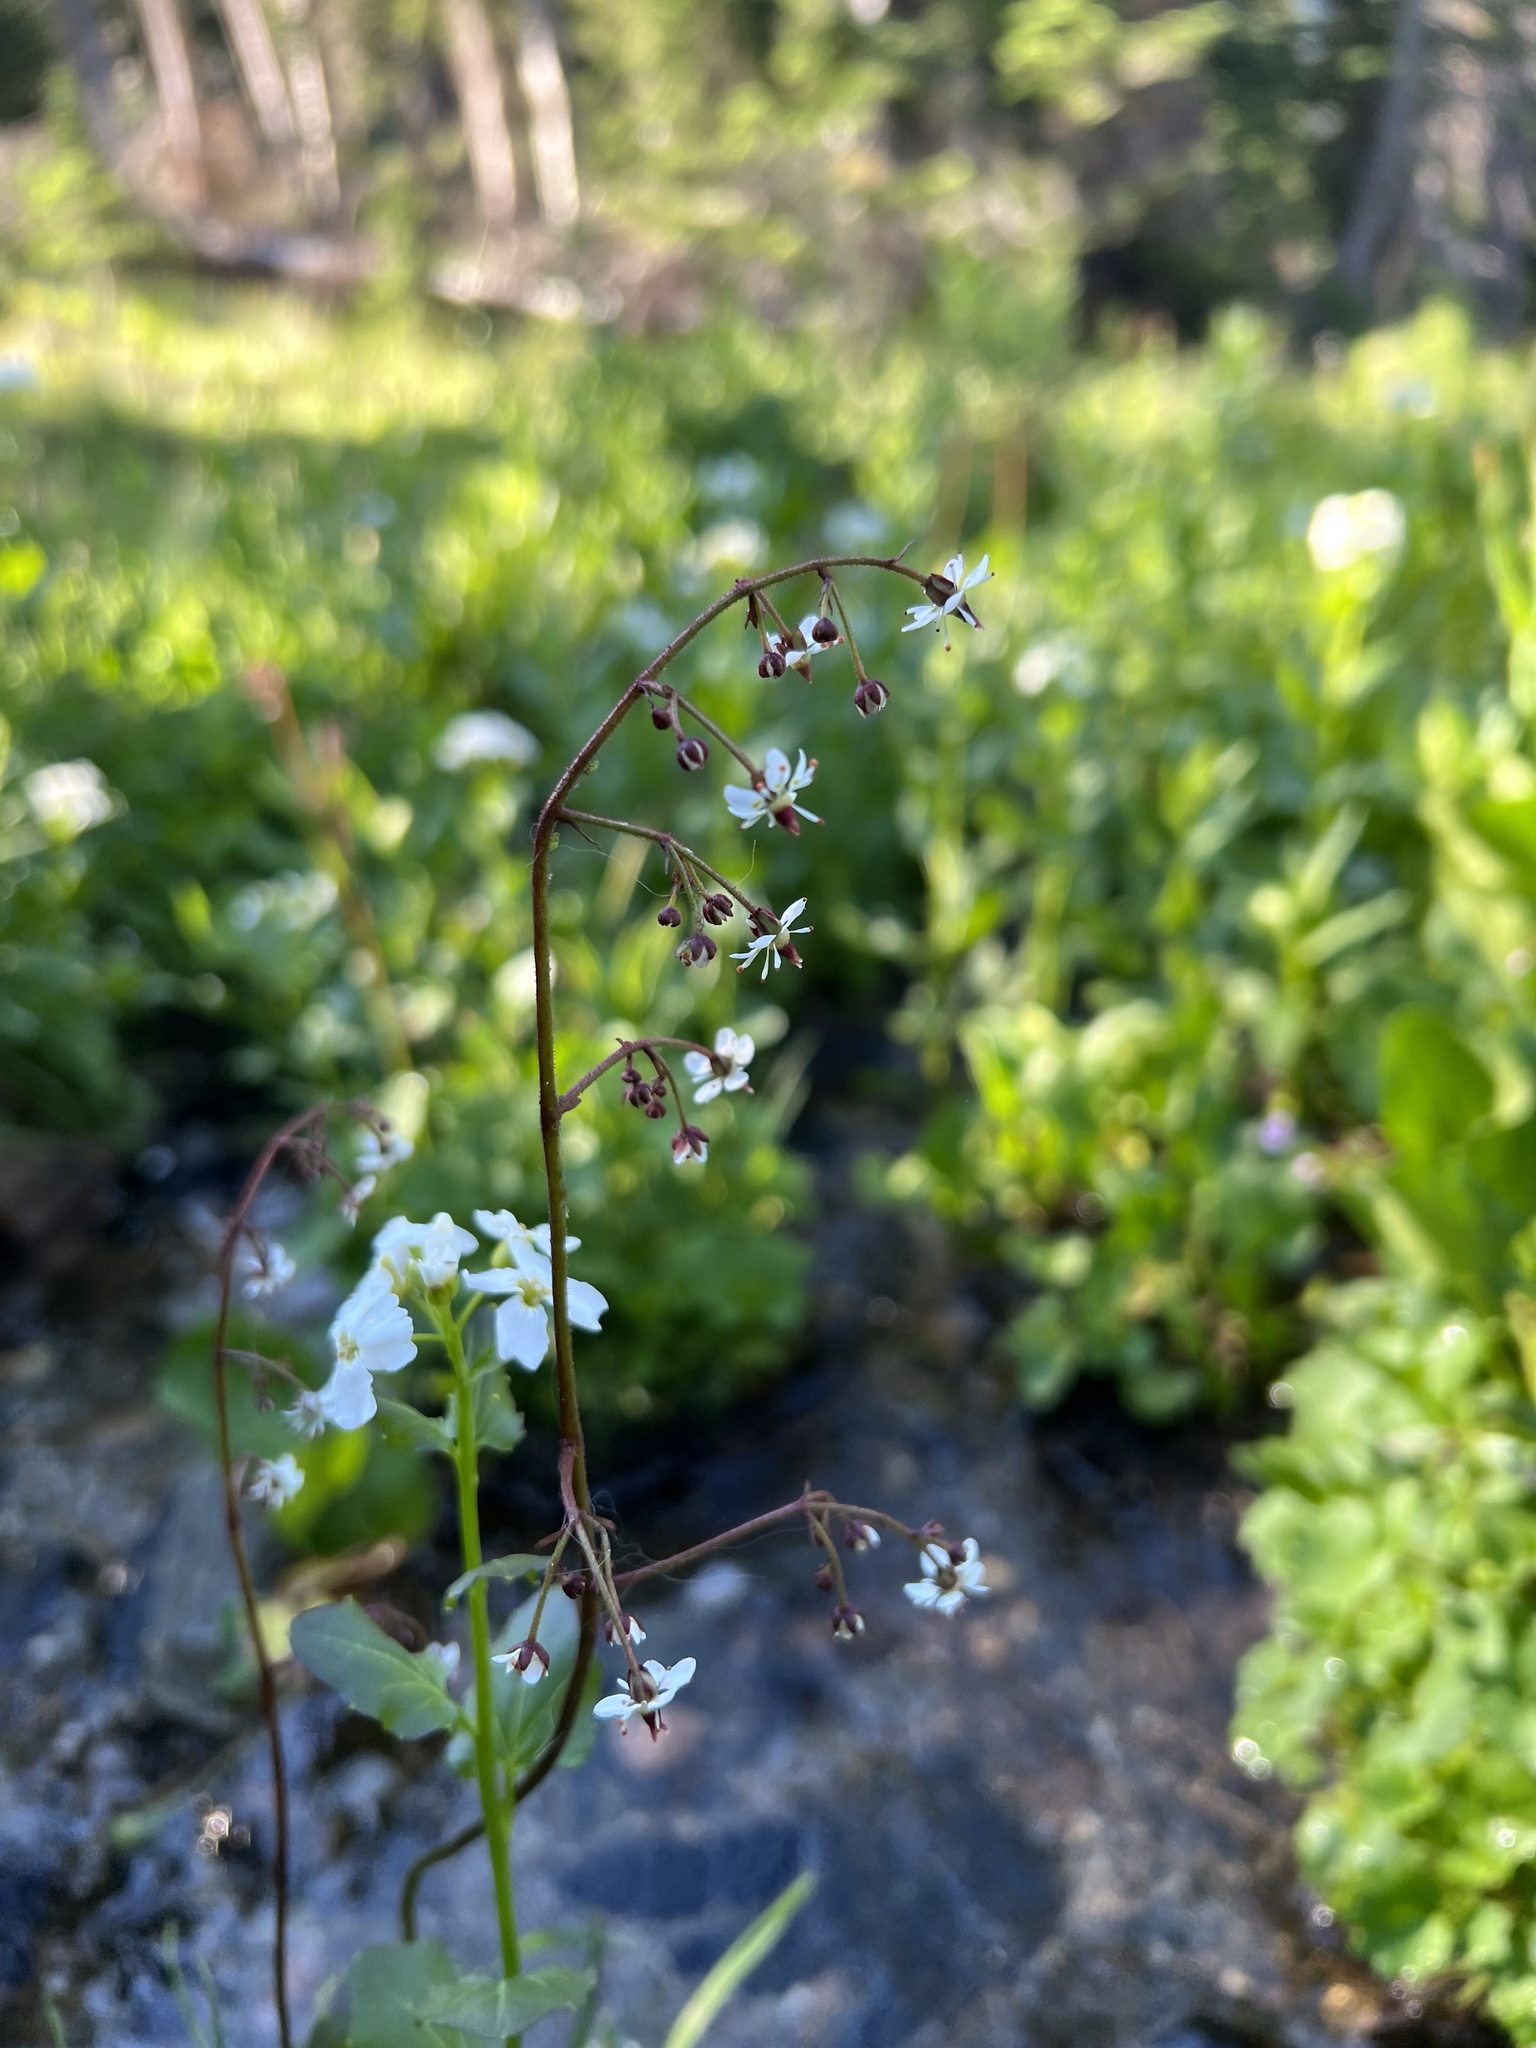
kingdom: Plantae
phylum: Tracheophyta
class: Magnoliopsida
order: Saxifragales
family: Saxifragaceae
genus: Micranthes
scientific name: Micranthes odontoloma
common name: Brook saxifrage
